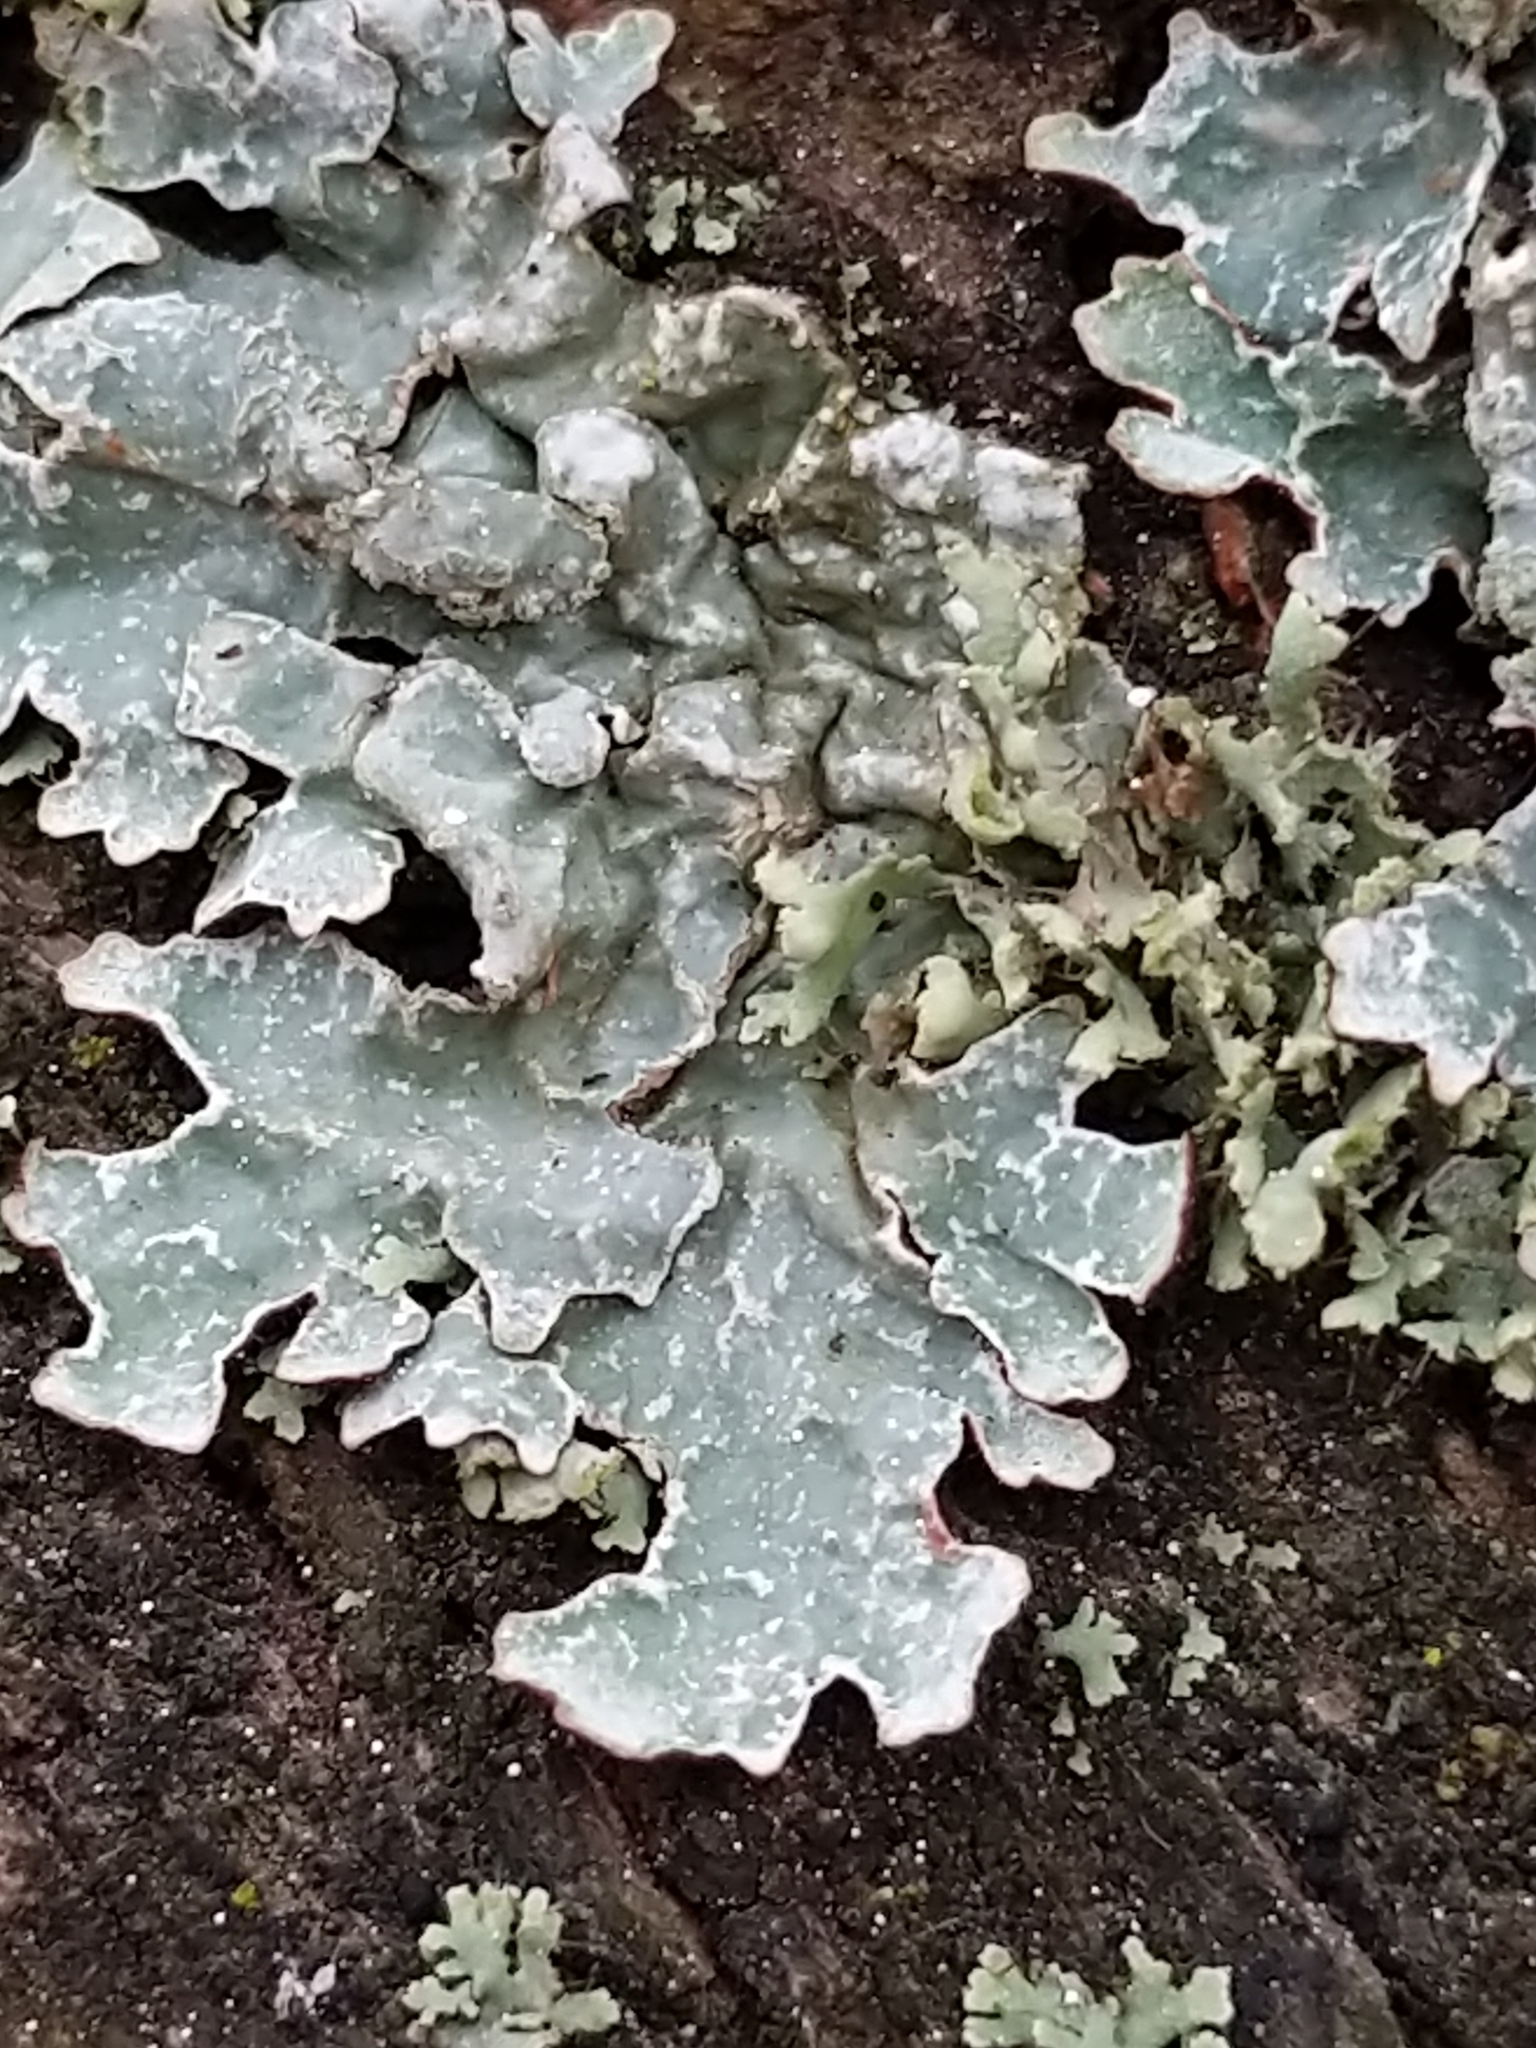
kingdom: Fungi
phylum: Ascomycota
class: Lecanoromycetes
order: Lecanorales
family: Parmeliaceae
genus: Parmelia
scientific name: Parmelia sulcata
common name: Netted shield lichen
